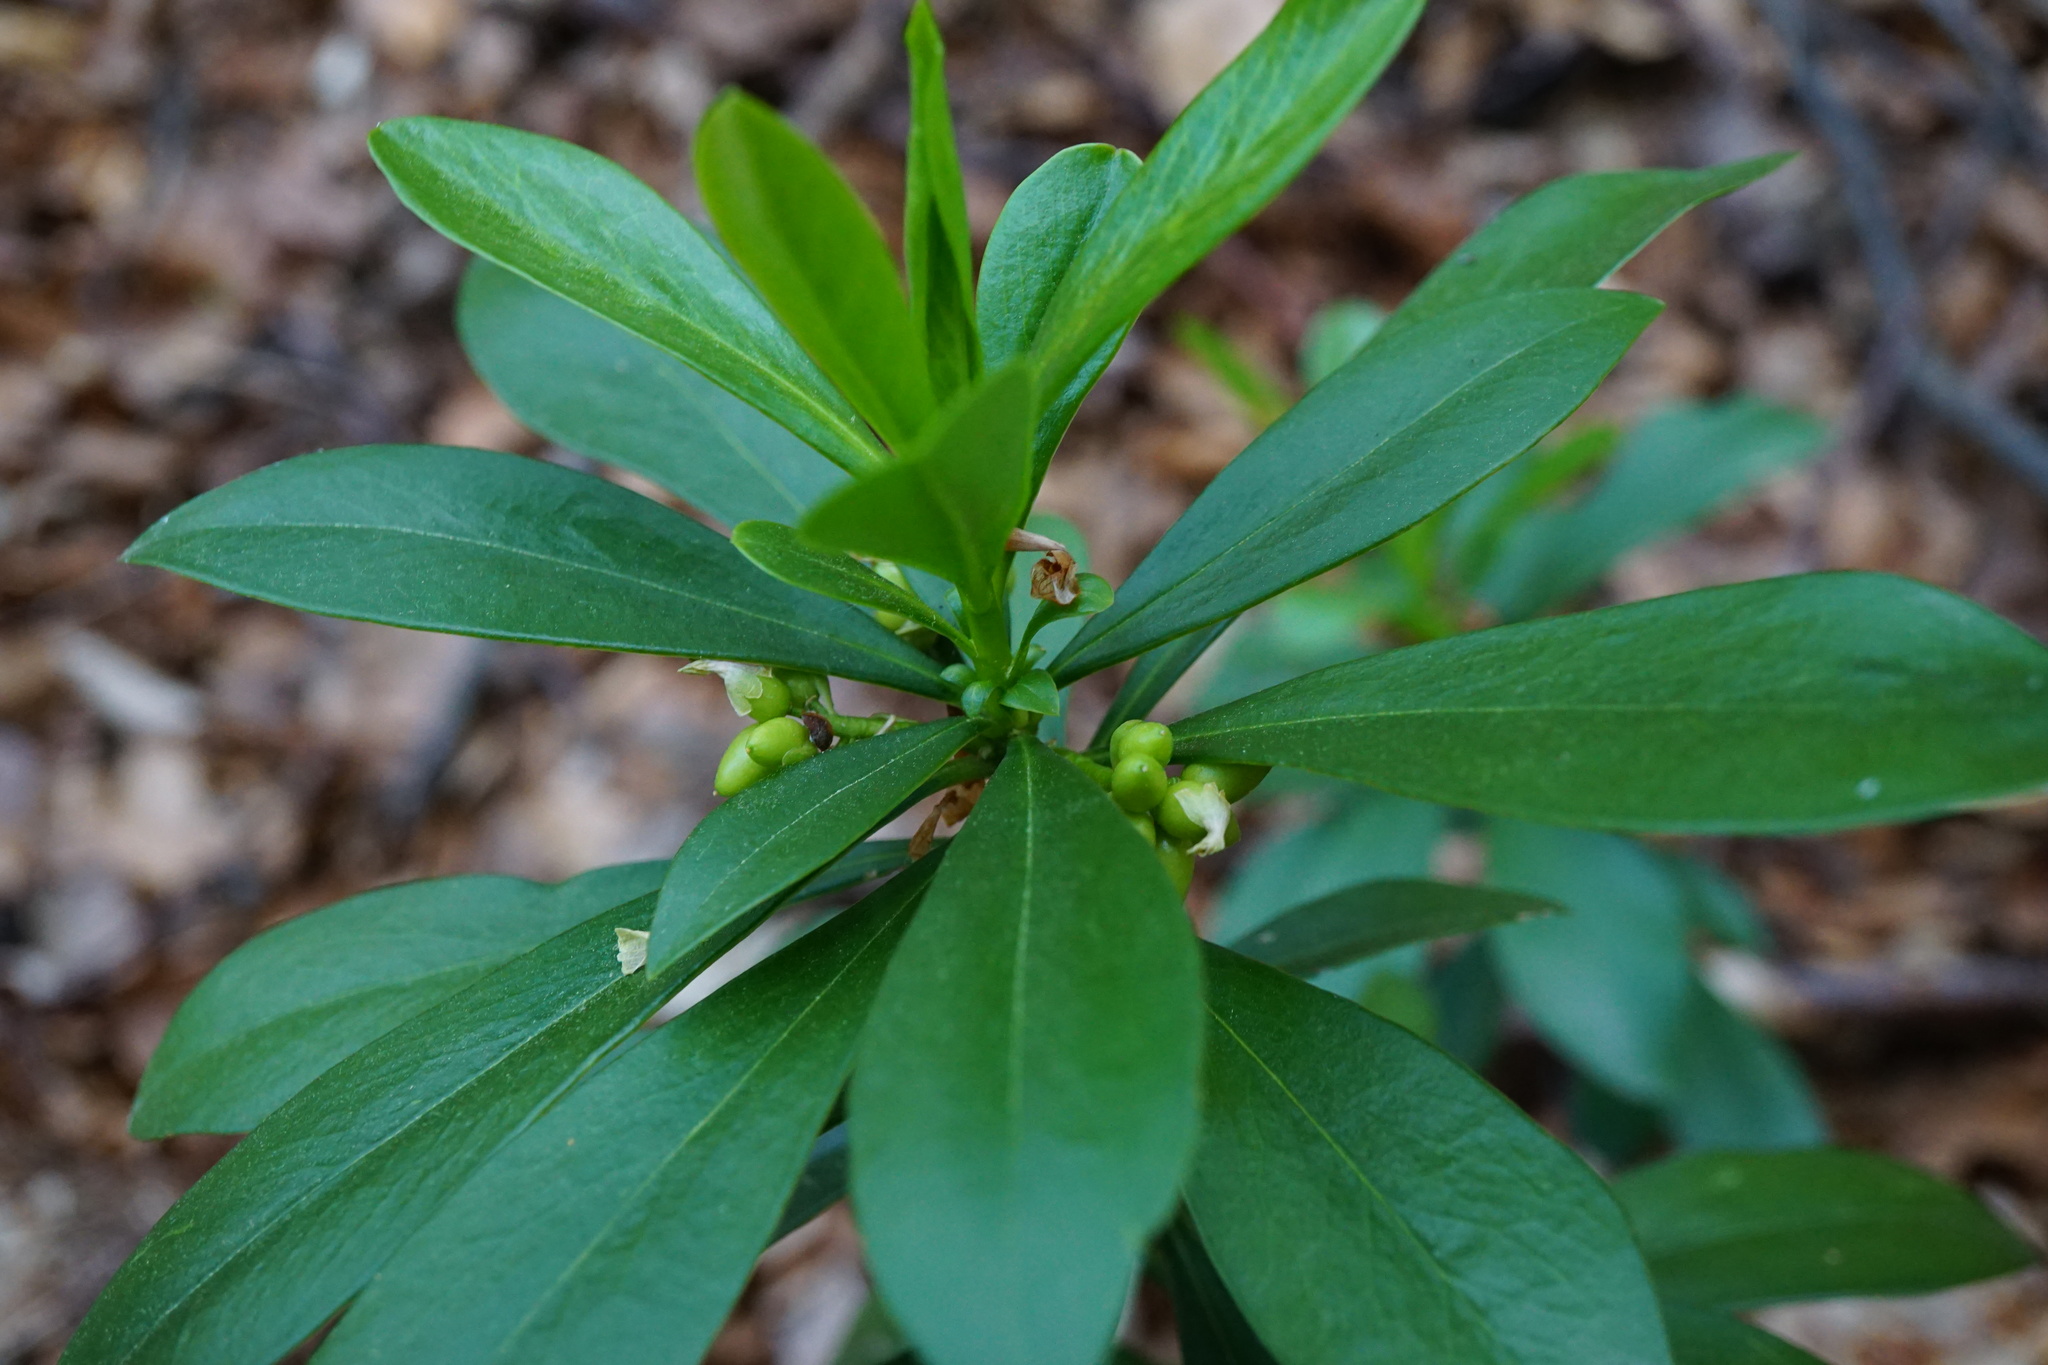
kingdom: Plantae
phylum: Tracheophyta
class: Magnoliopsida
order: Malvales
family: Thymelaeaceae
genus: Daphne
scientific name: Daphne laureola
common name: Spurge-laurel
